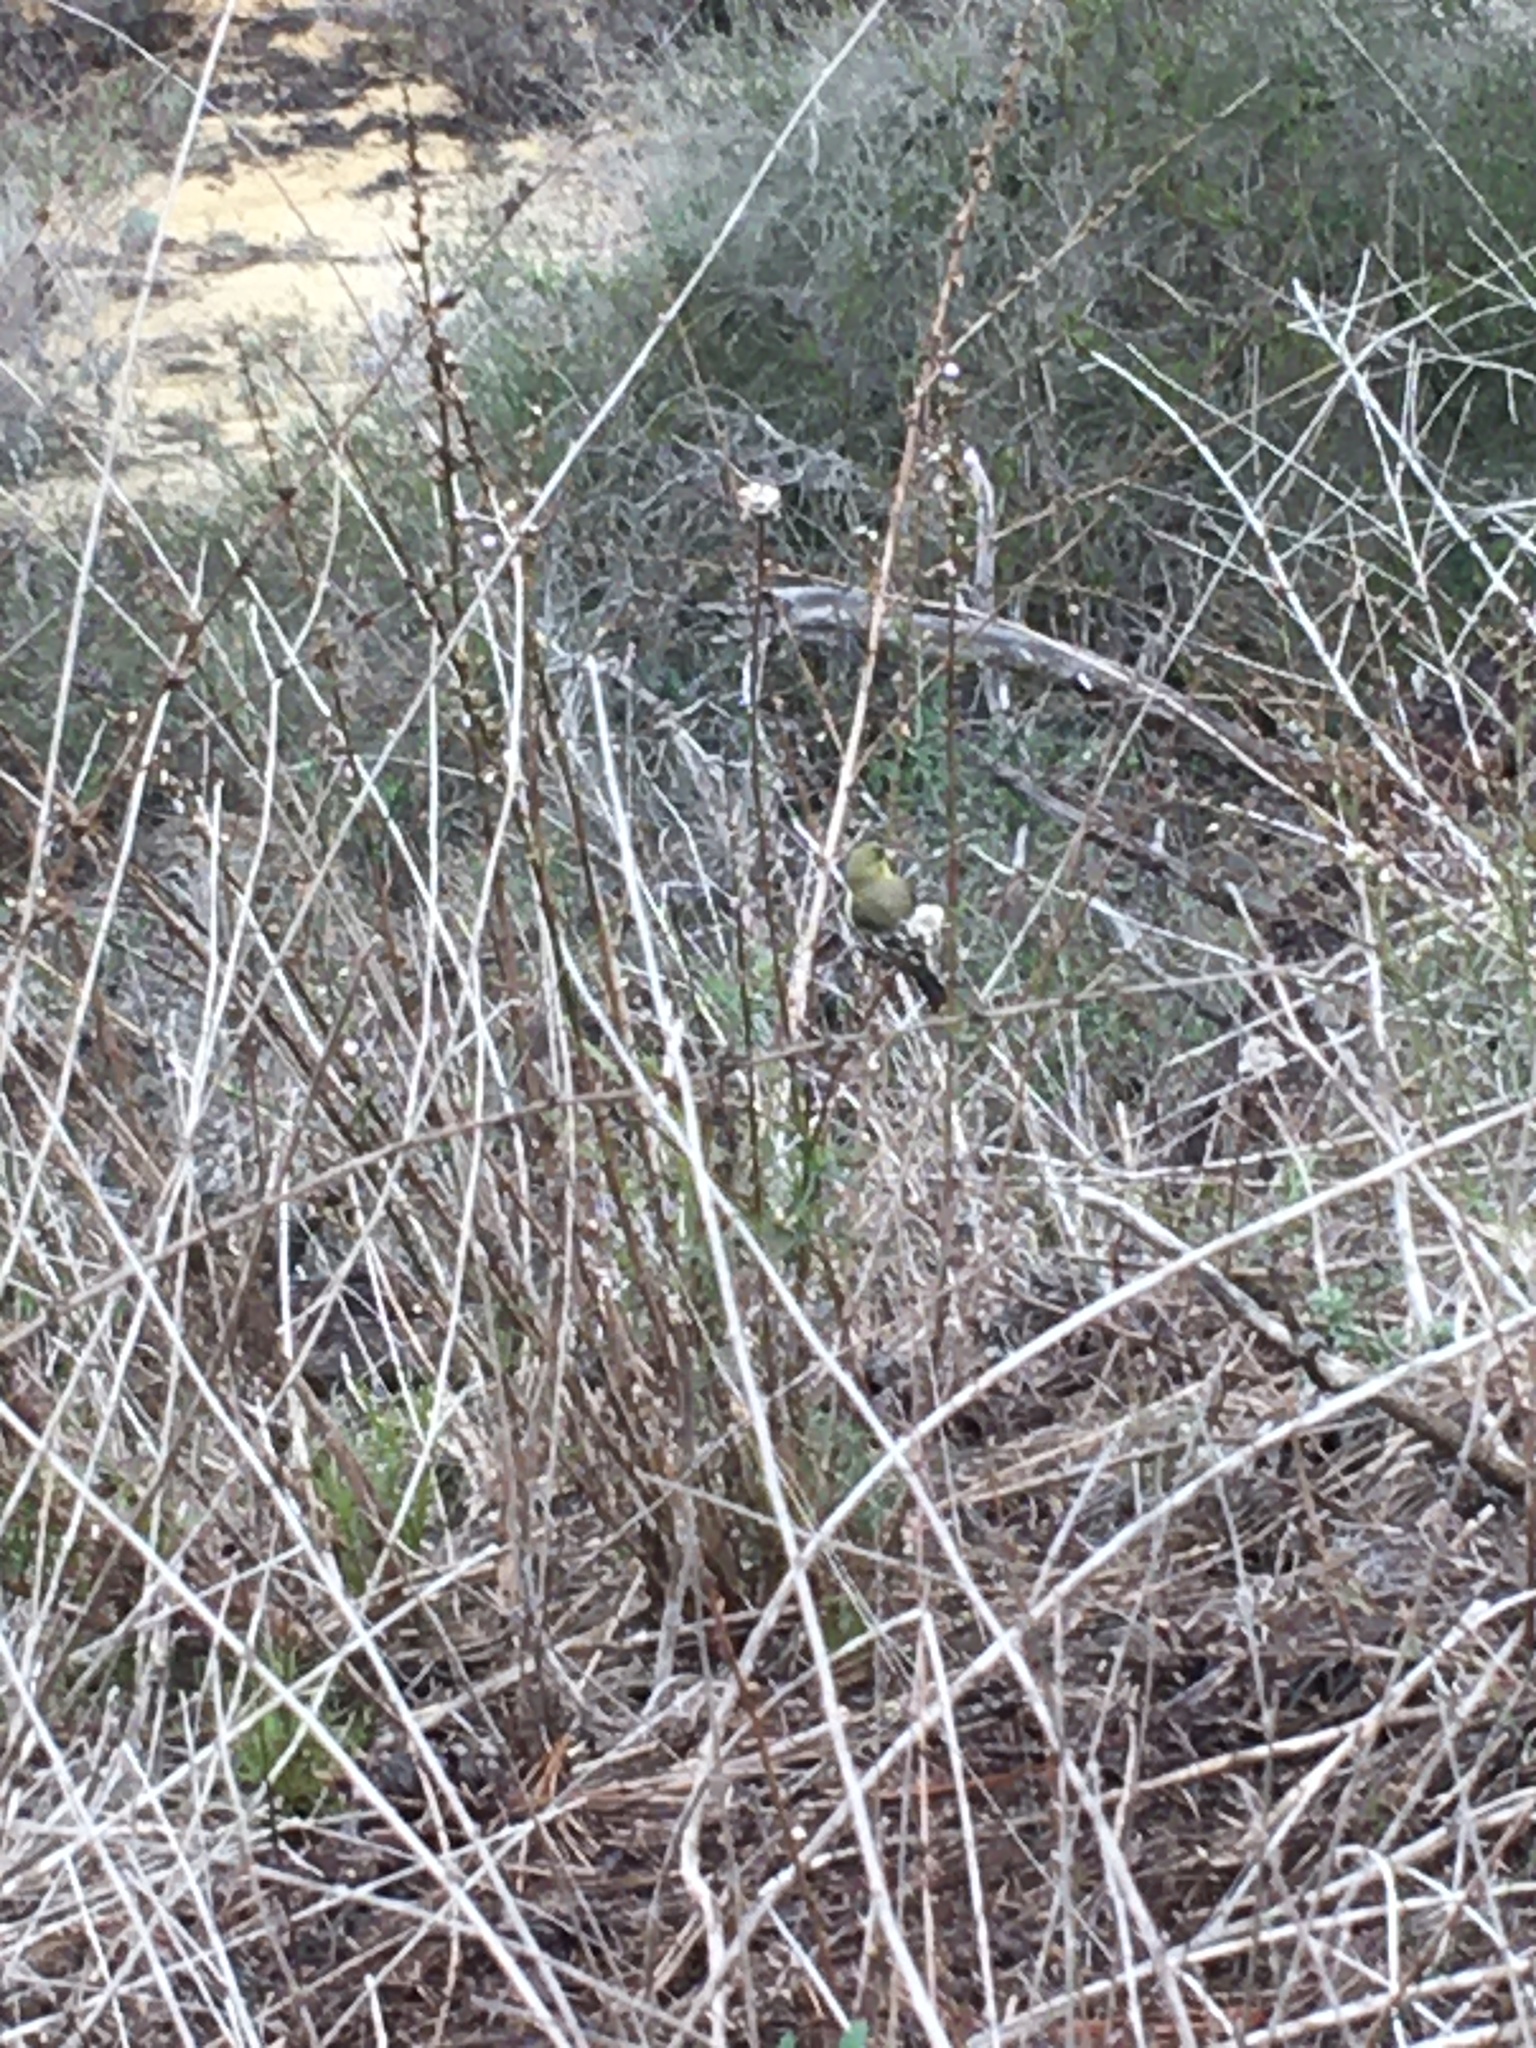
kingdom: Animalia
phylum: Chordata
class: Aves
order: Passeriformes
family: Fringillidae
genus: Spinus
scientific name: Spinus psaltria
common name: Lesser goldfinch
